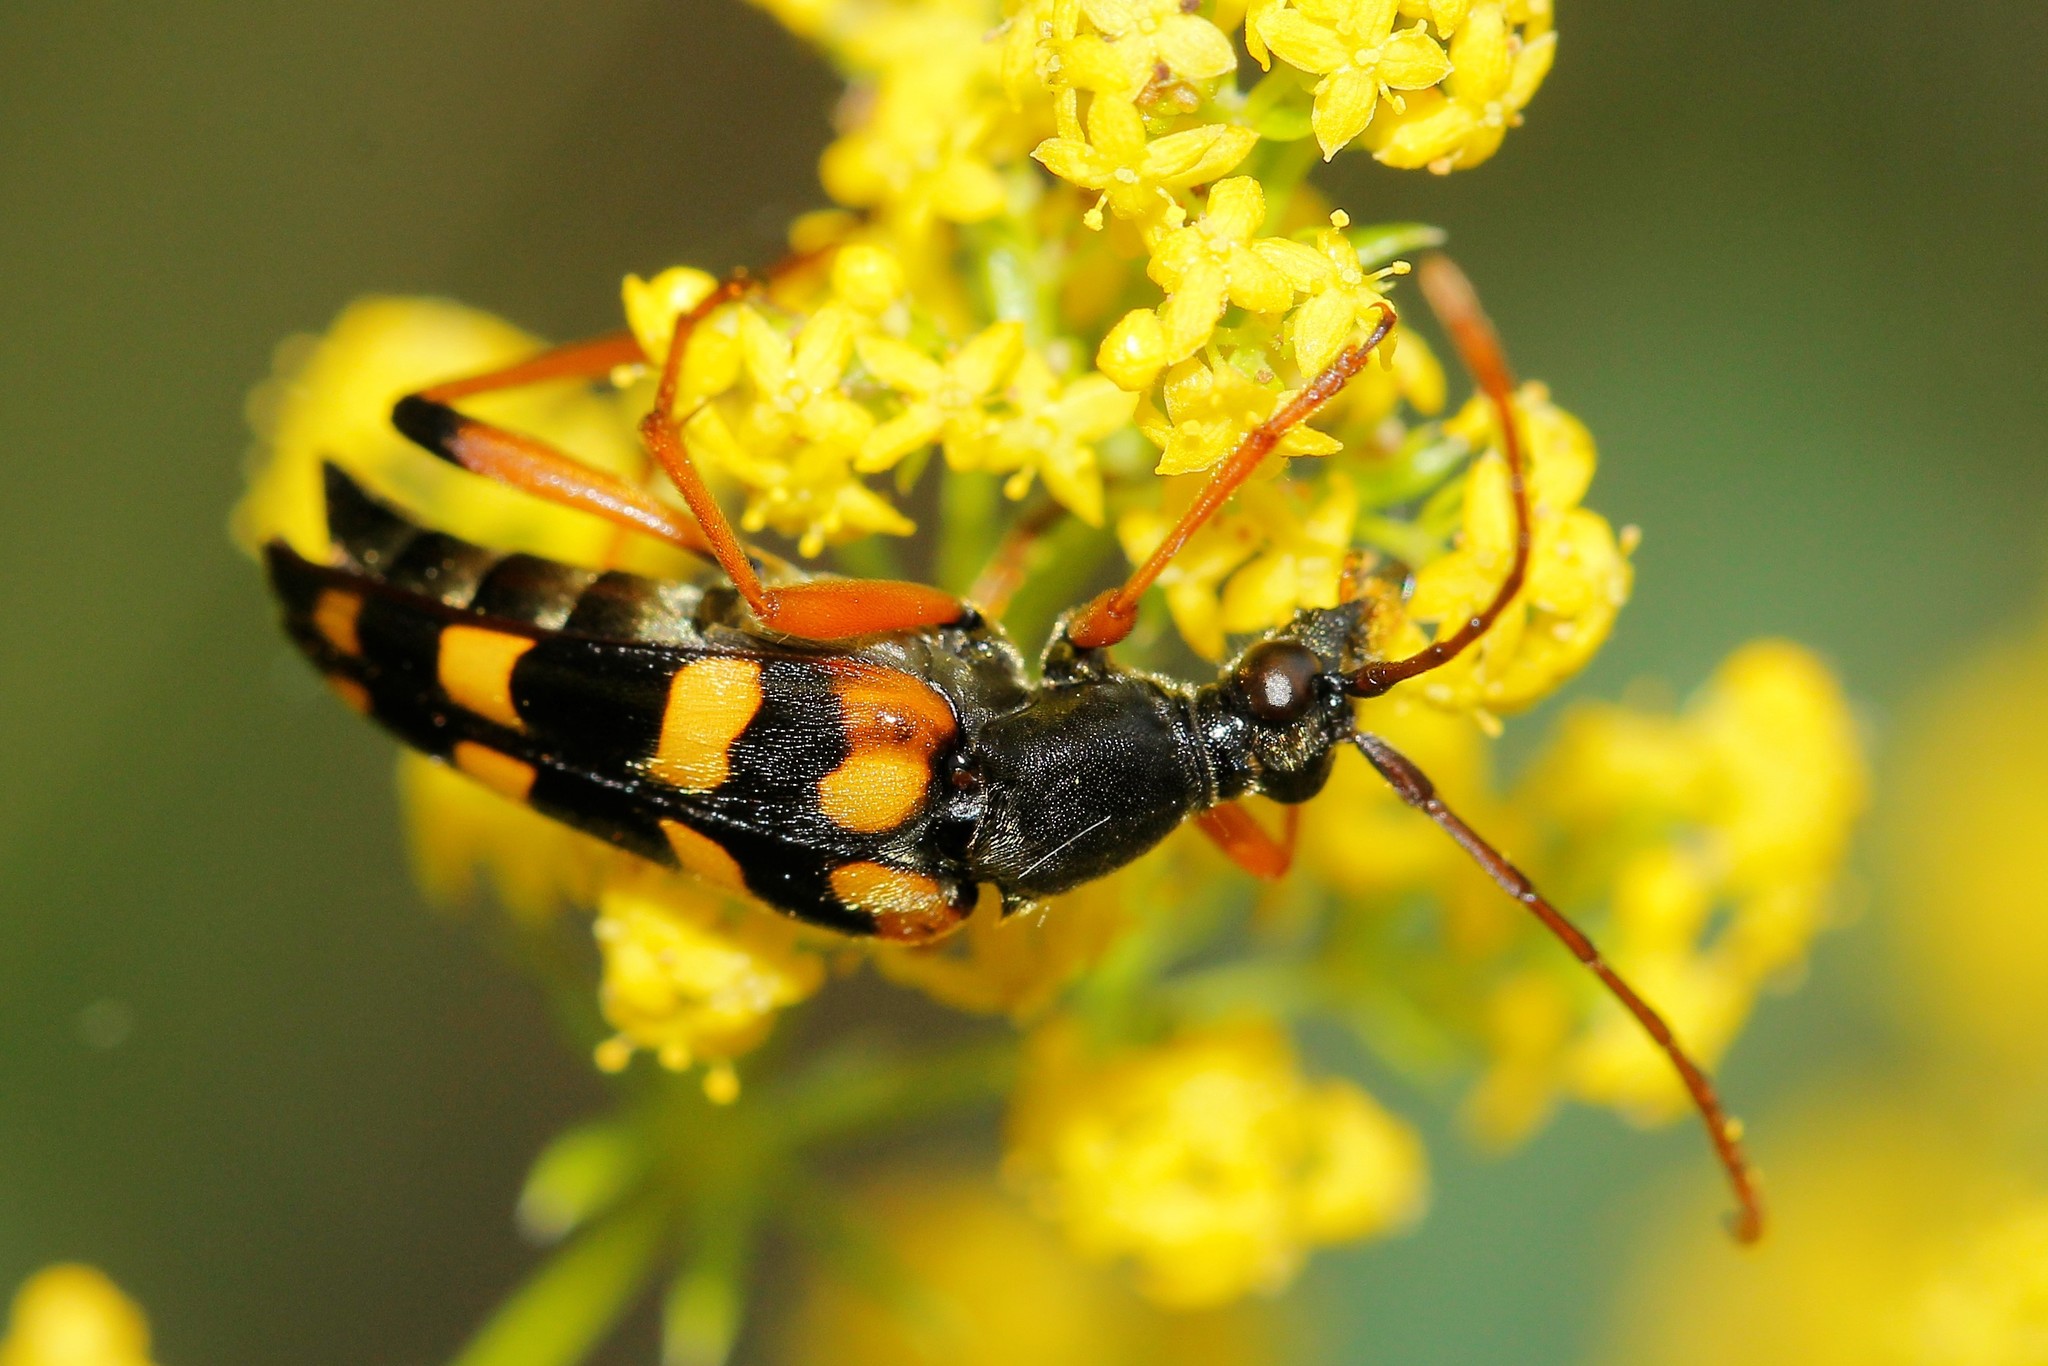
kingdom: Animalia
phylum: Arthropoda
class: Insecta
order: Coleoptera
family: Cerambycidae
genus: Strangalia
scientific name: Strangalia attenuata
